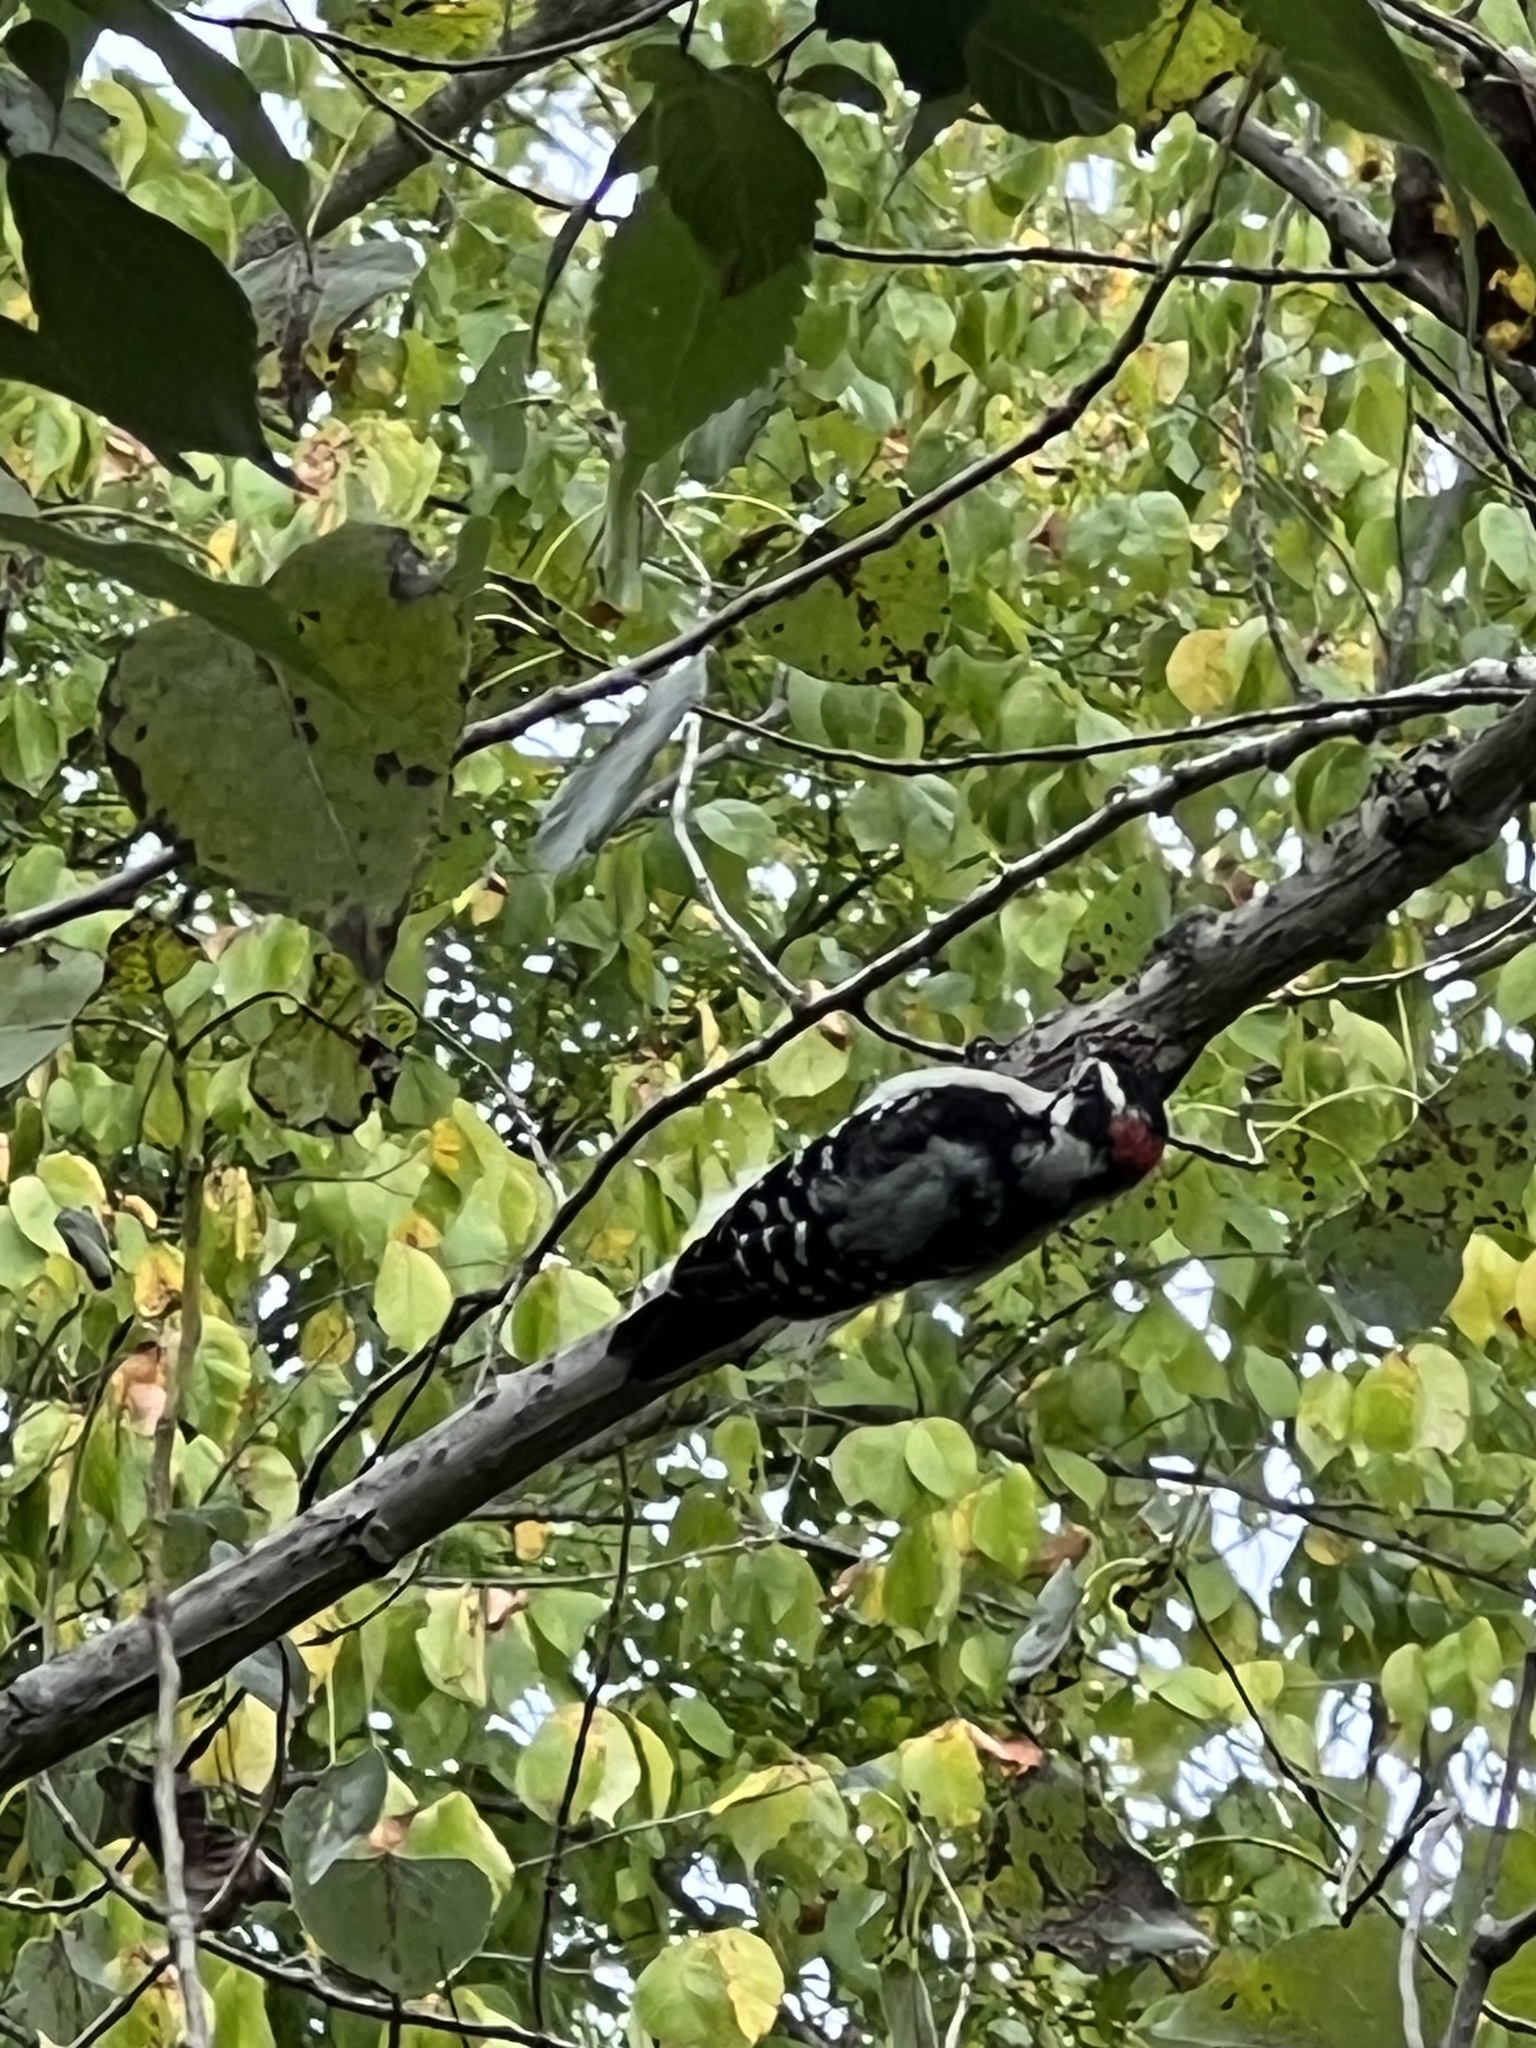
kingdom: Animalia
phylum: Chordata
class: Aves
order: Piciformes
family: Picidae
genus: Dryobates
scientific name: Dryobates pubescens
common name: Downy woodpecker
